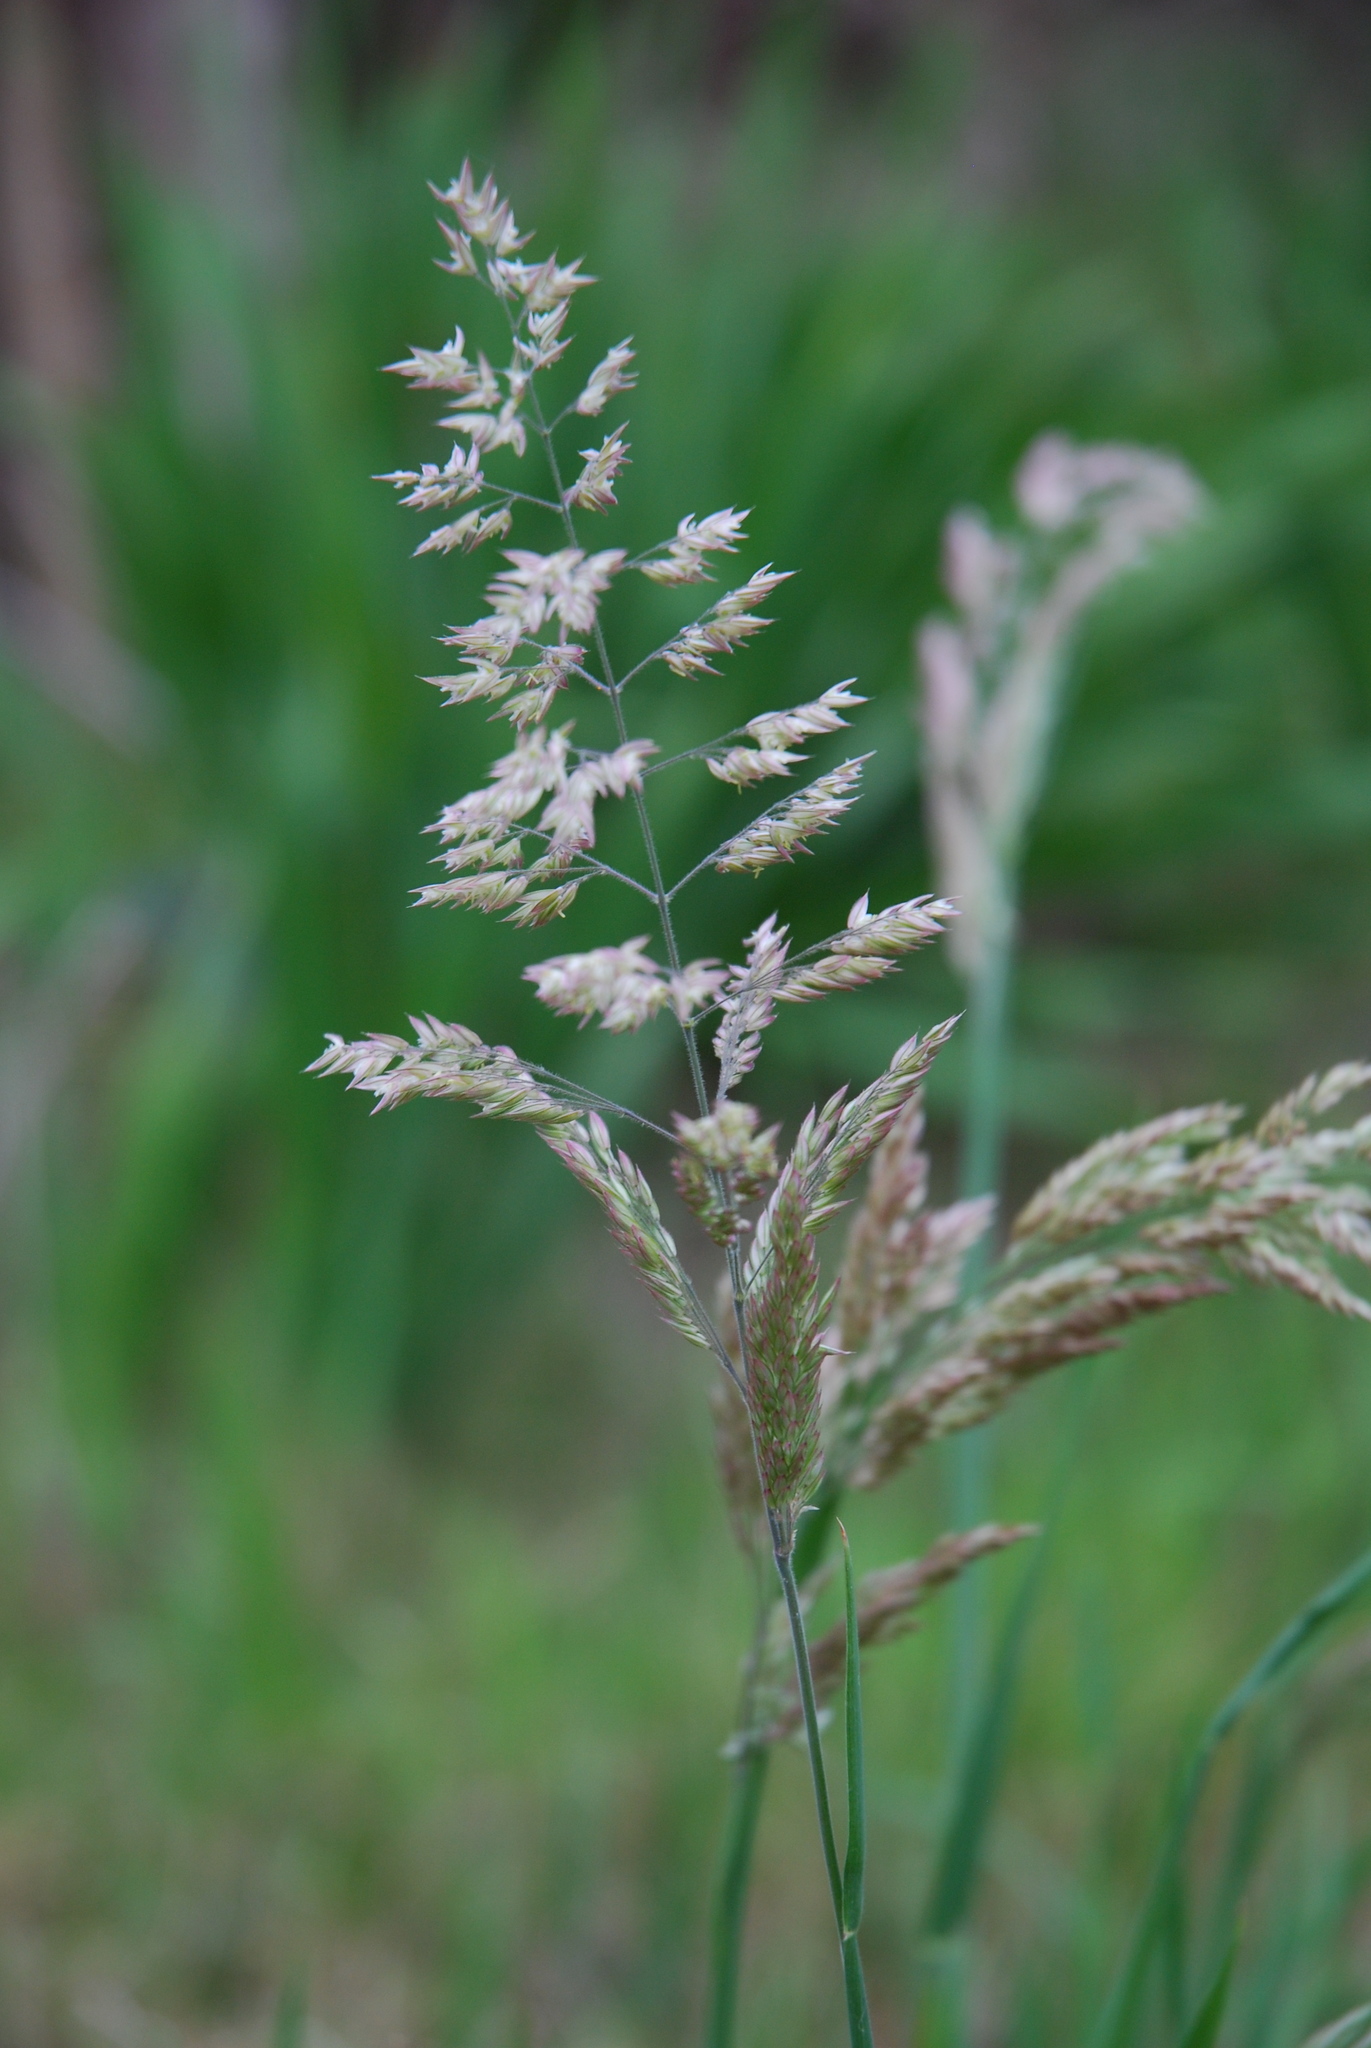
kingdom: Plantae
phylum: Tracheophyta
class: Liliopsida
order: Poales
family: Poaceae
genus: Holcus
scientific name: Holcus lanatus
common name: Yorkshire-fog
